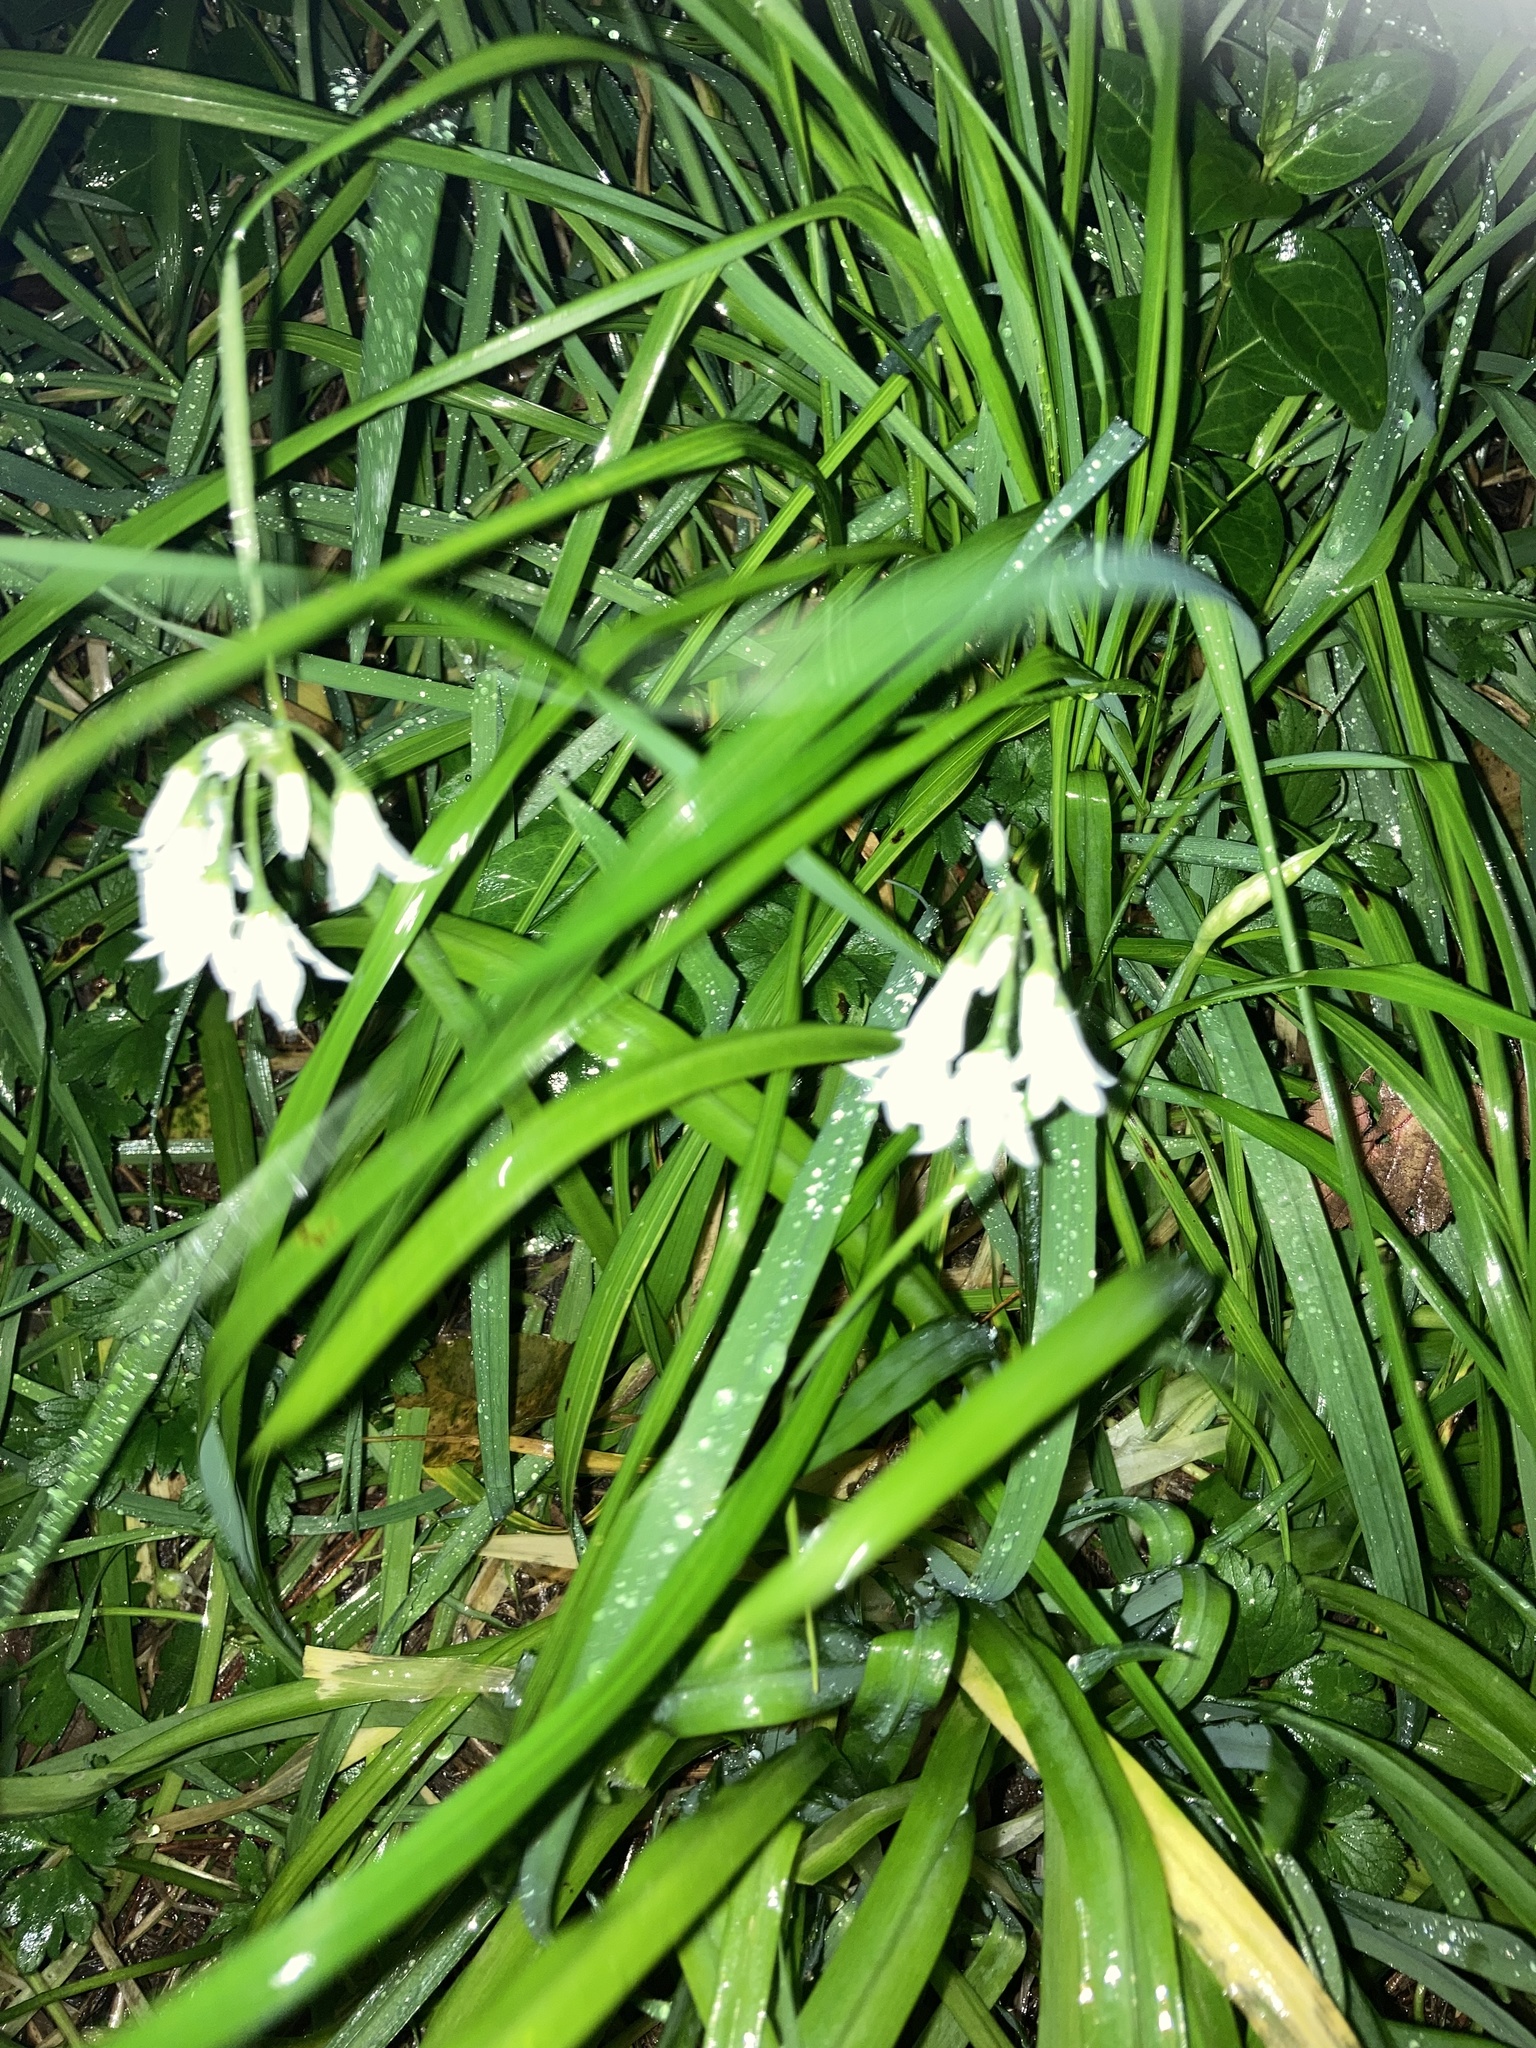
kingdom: Plantae
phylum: Tracheophyta
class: Liliopsida
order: Asparagales
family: Amaryllidaceae
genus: Allium
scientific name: Allium triquetrum
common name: Three-cornered garlic
